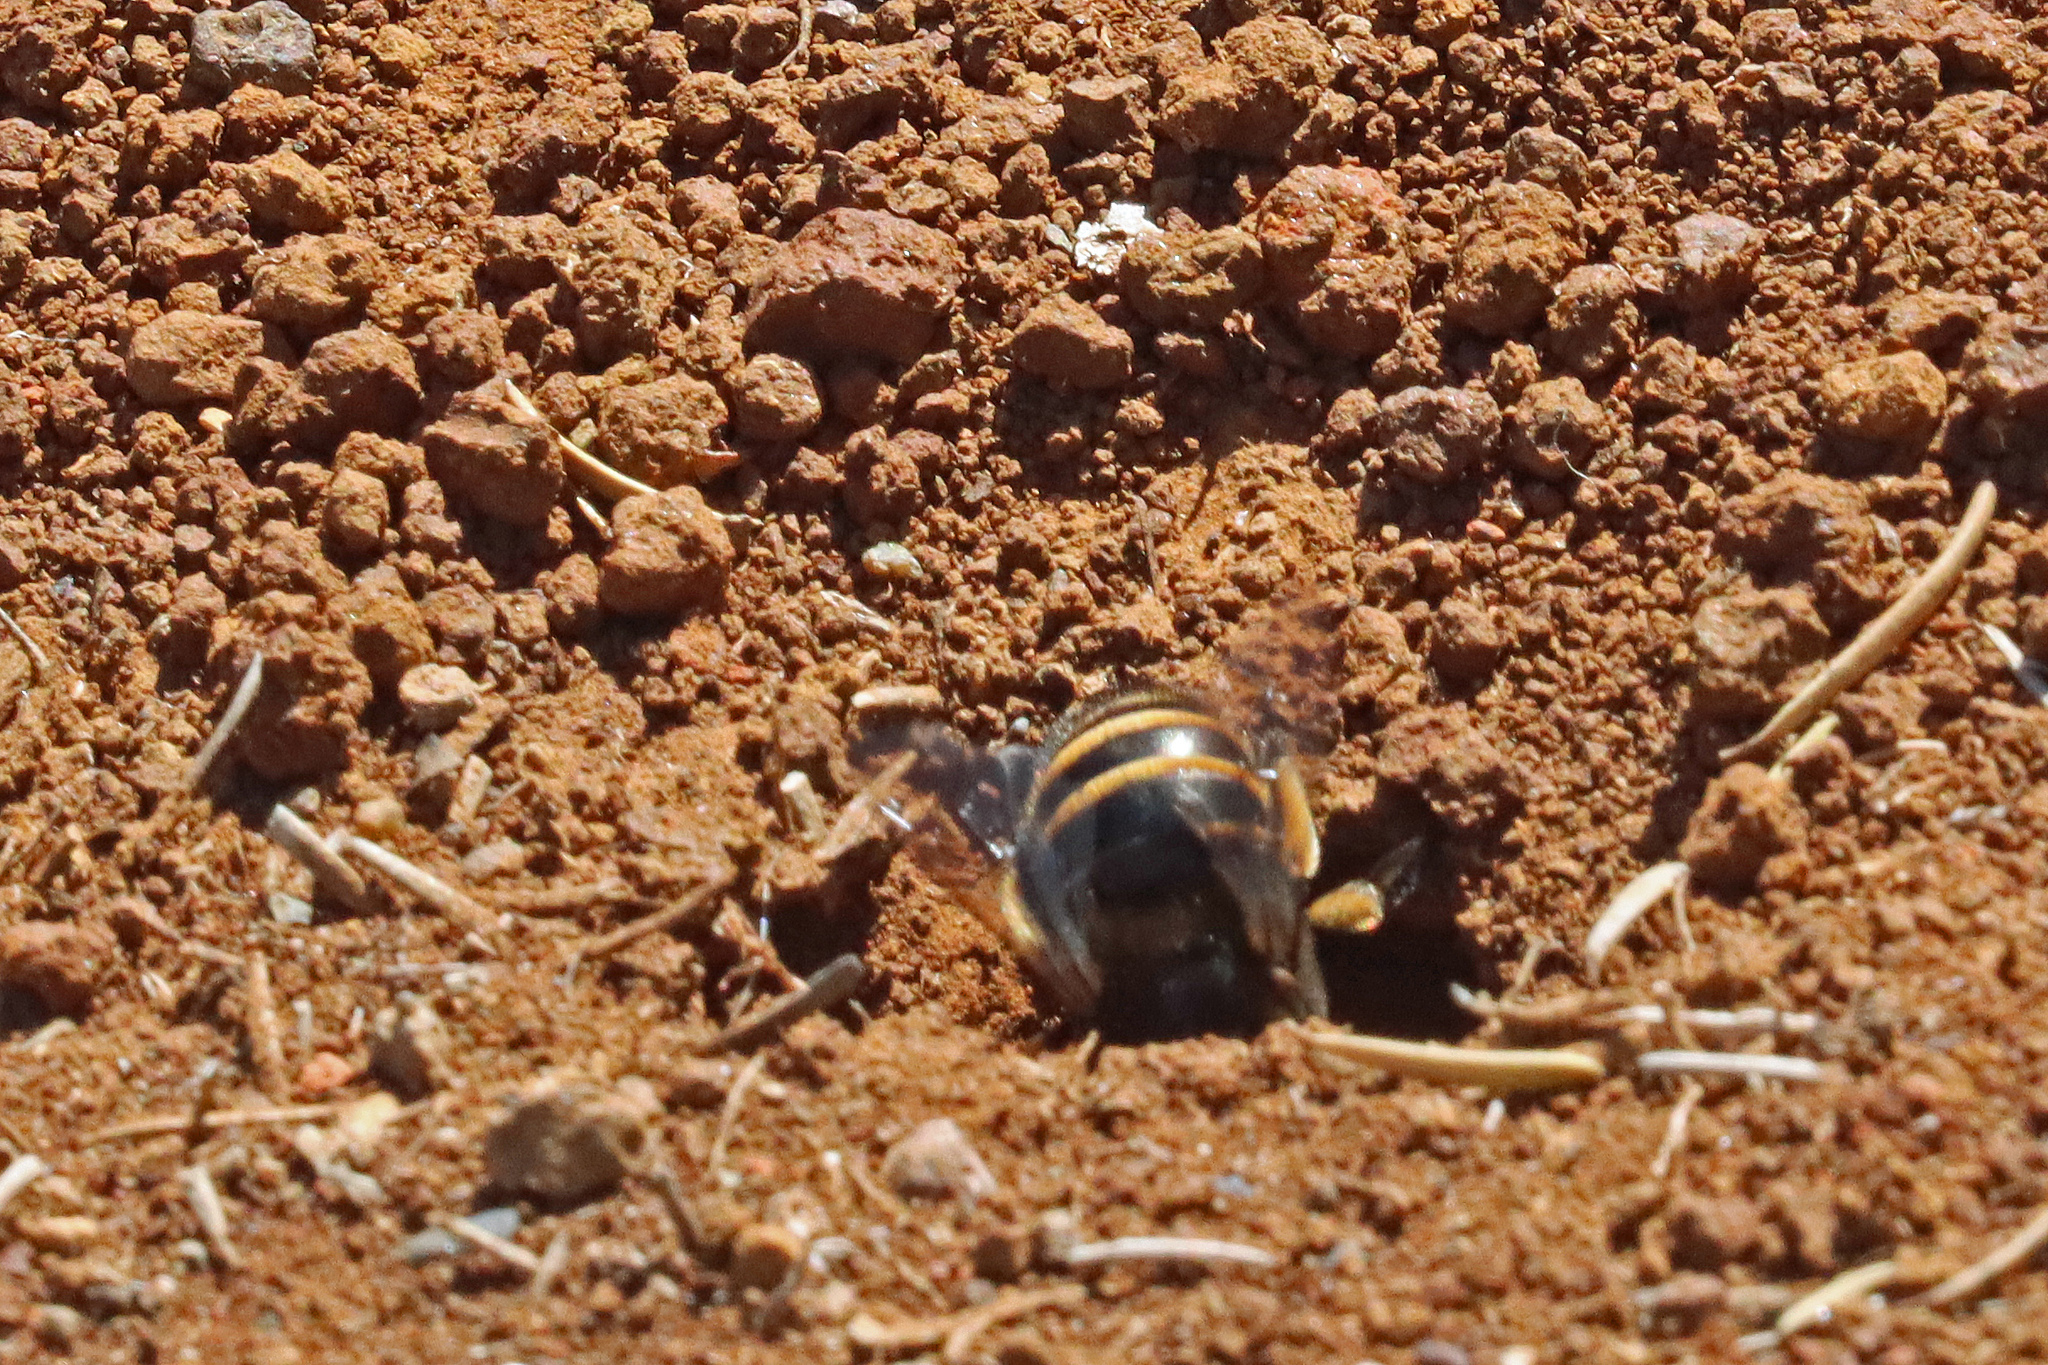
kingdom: Animalia
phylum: Arthropoda
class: Insecta
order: Hymenoptera
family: Apidae
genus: Amegilla
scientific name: Amegilla quadrifasciata
